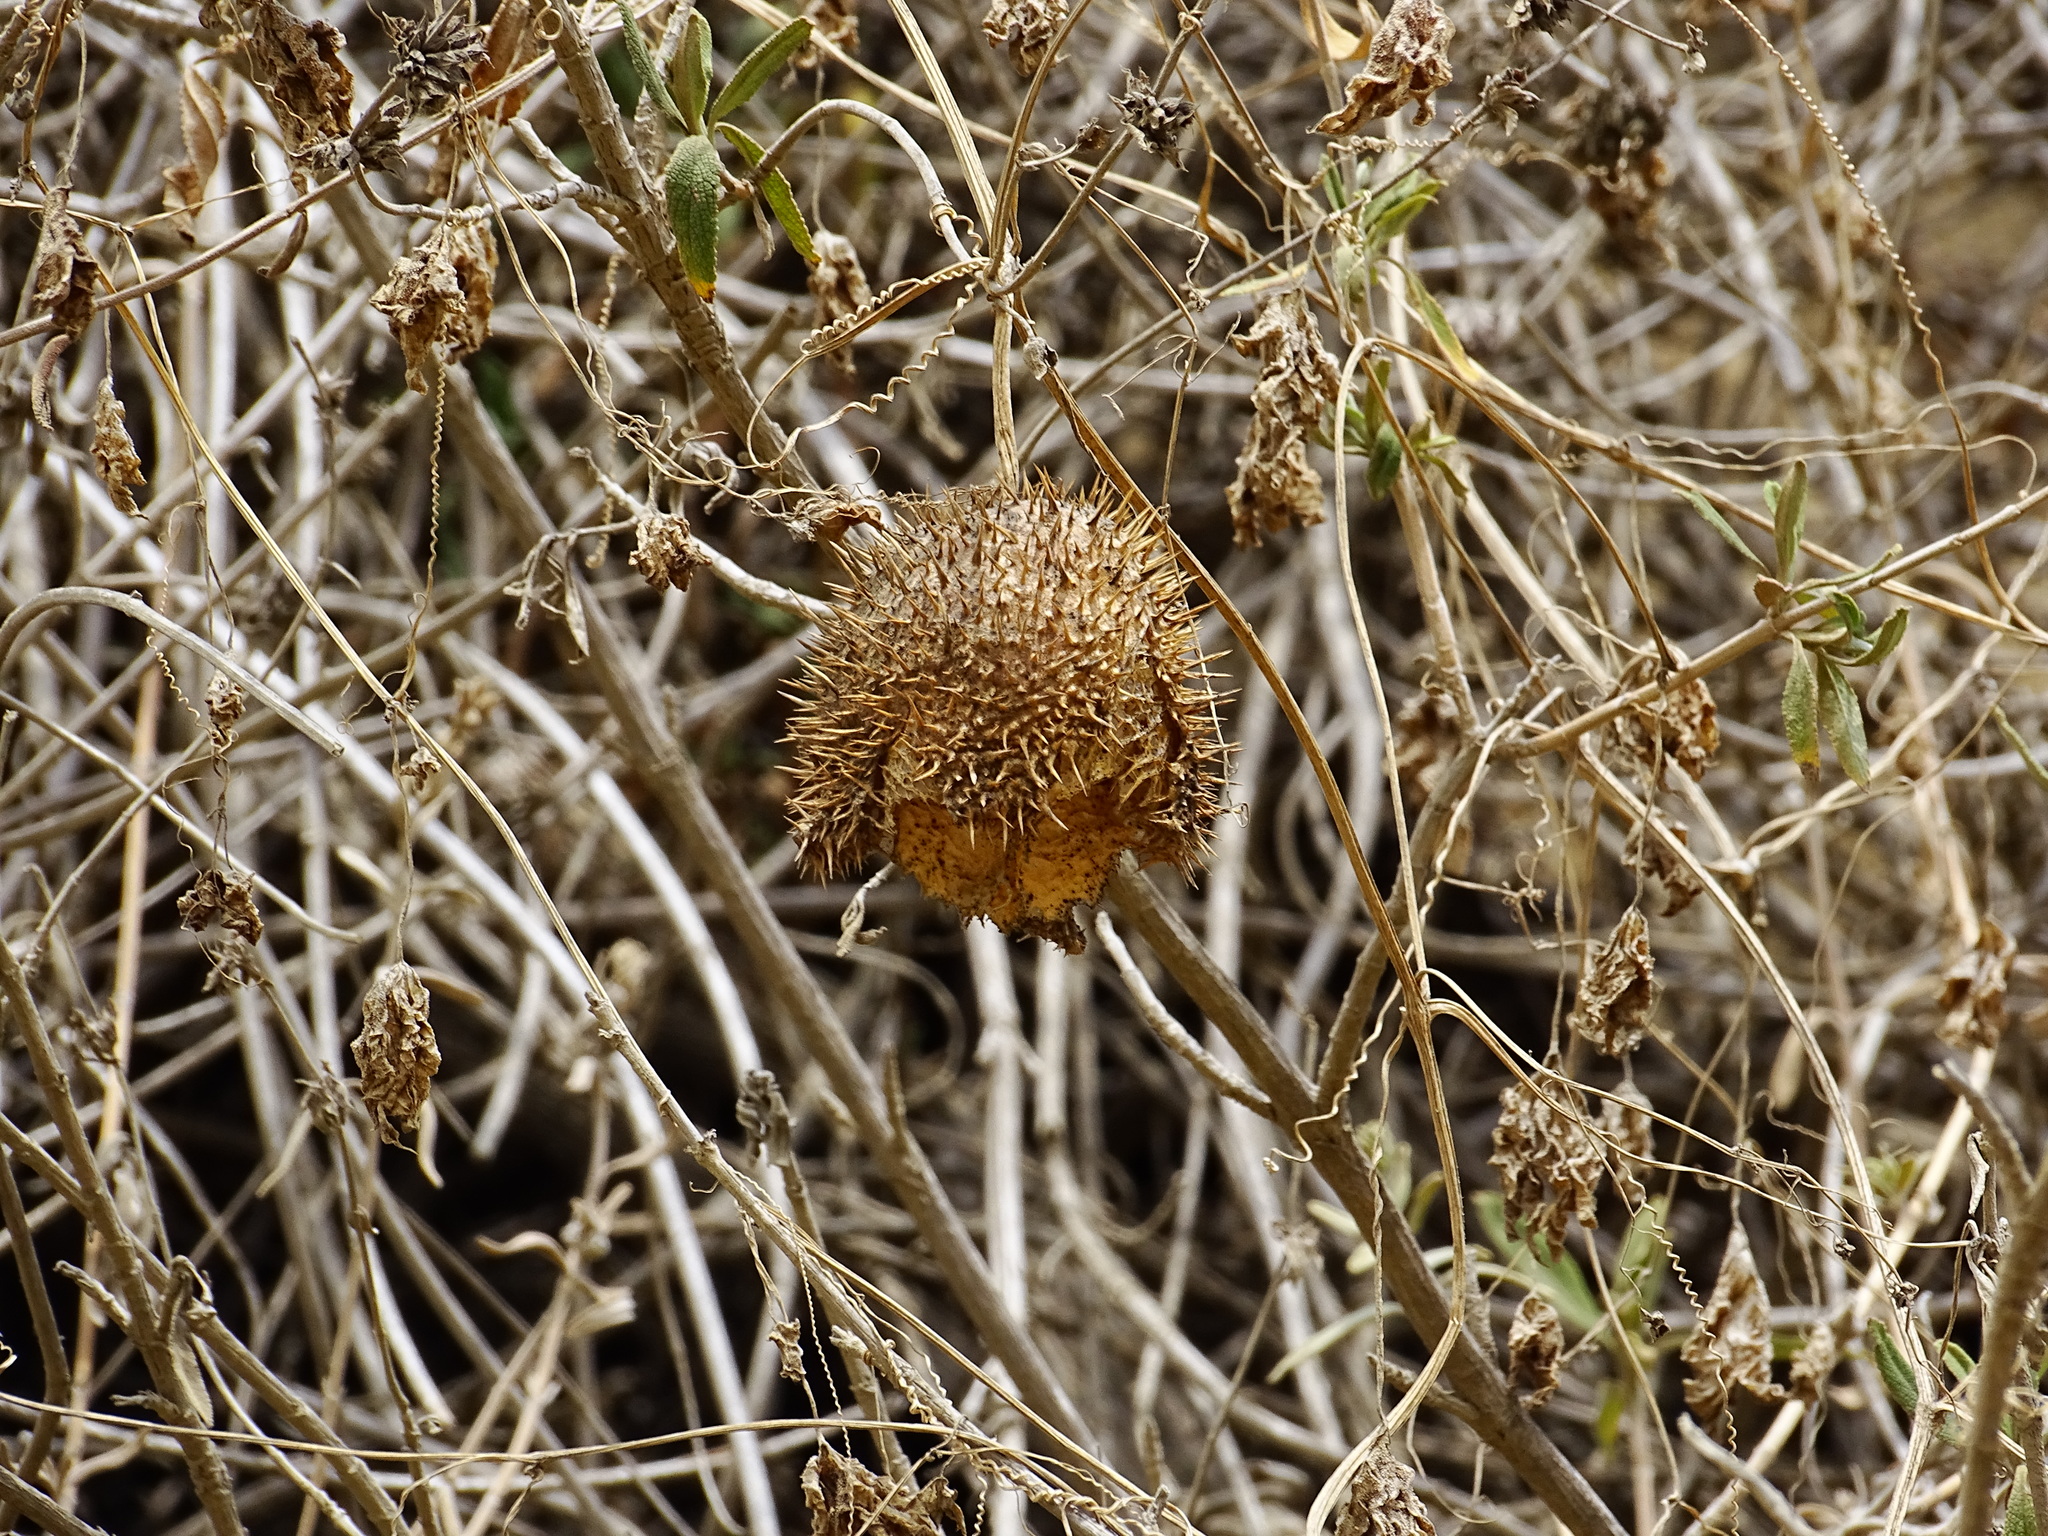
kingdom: Plantae
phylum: Tracheophyta
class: Magnoliopsida
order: Cucurbitales
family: Cucurbitaceae
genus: Marah
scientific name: Marah macrocarpa
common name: Cucamonga manroot
